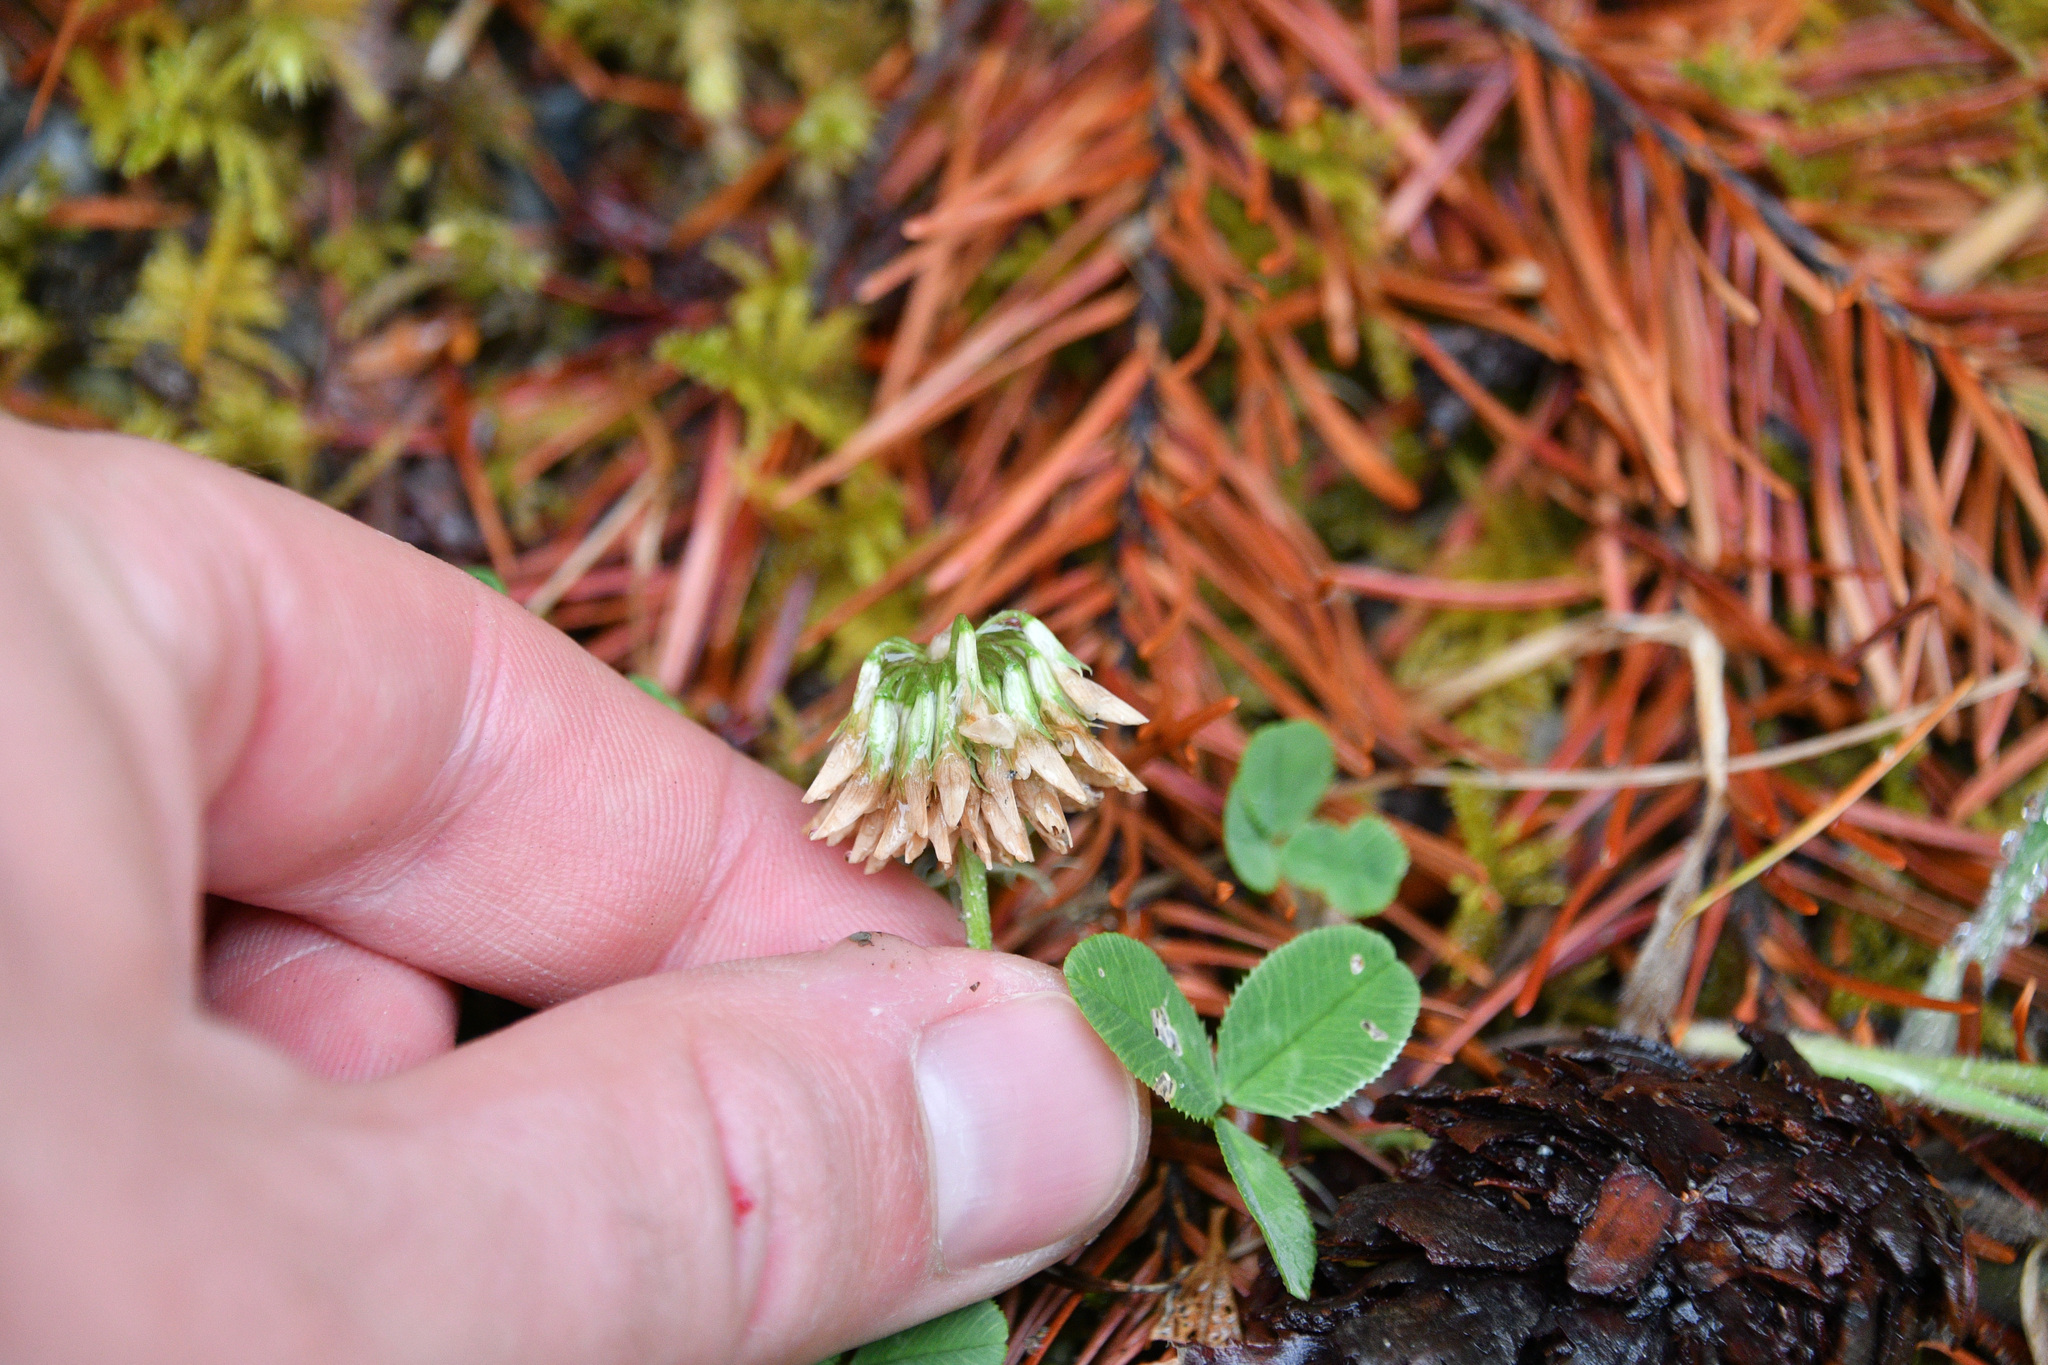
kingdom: Plantae
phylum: Tracheophyta
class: Magnoliopsida
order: Fabales
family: Fabaceae
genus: Trifolium
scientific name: Trifolium repens
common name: White clover
